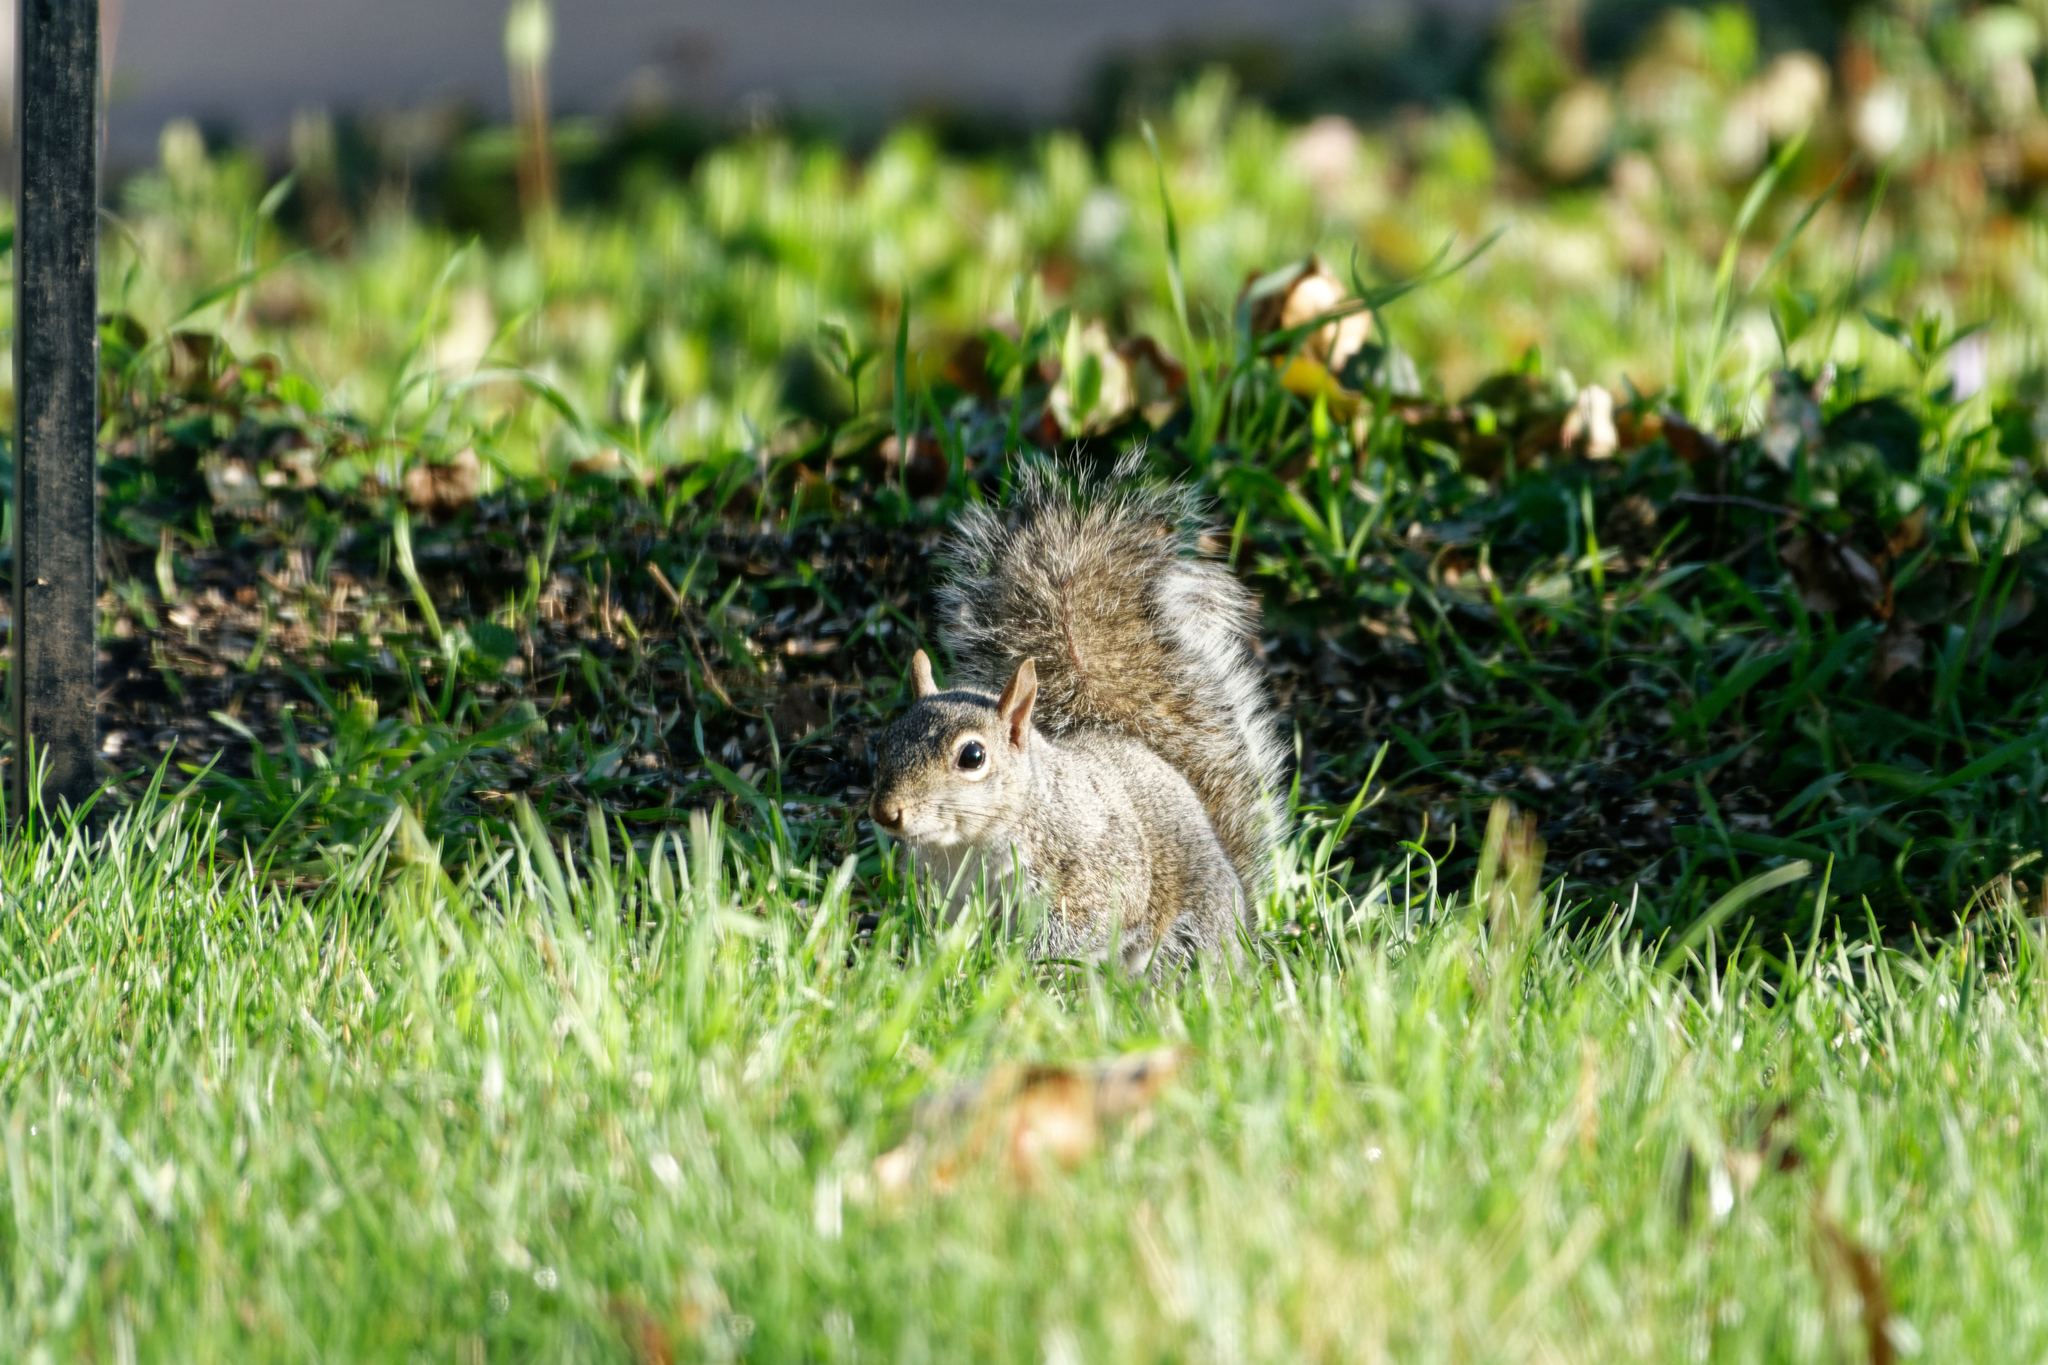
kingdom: Animalia
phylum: Chordata
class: Mammalia
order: Rodentia
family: Sciuridae
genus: Sciurus
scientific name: Sciurus carolinensis
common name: Eastern gray squirrel
